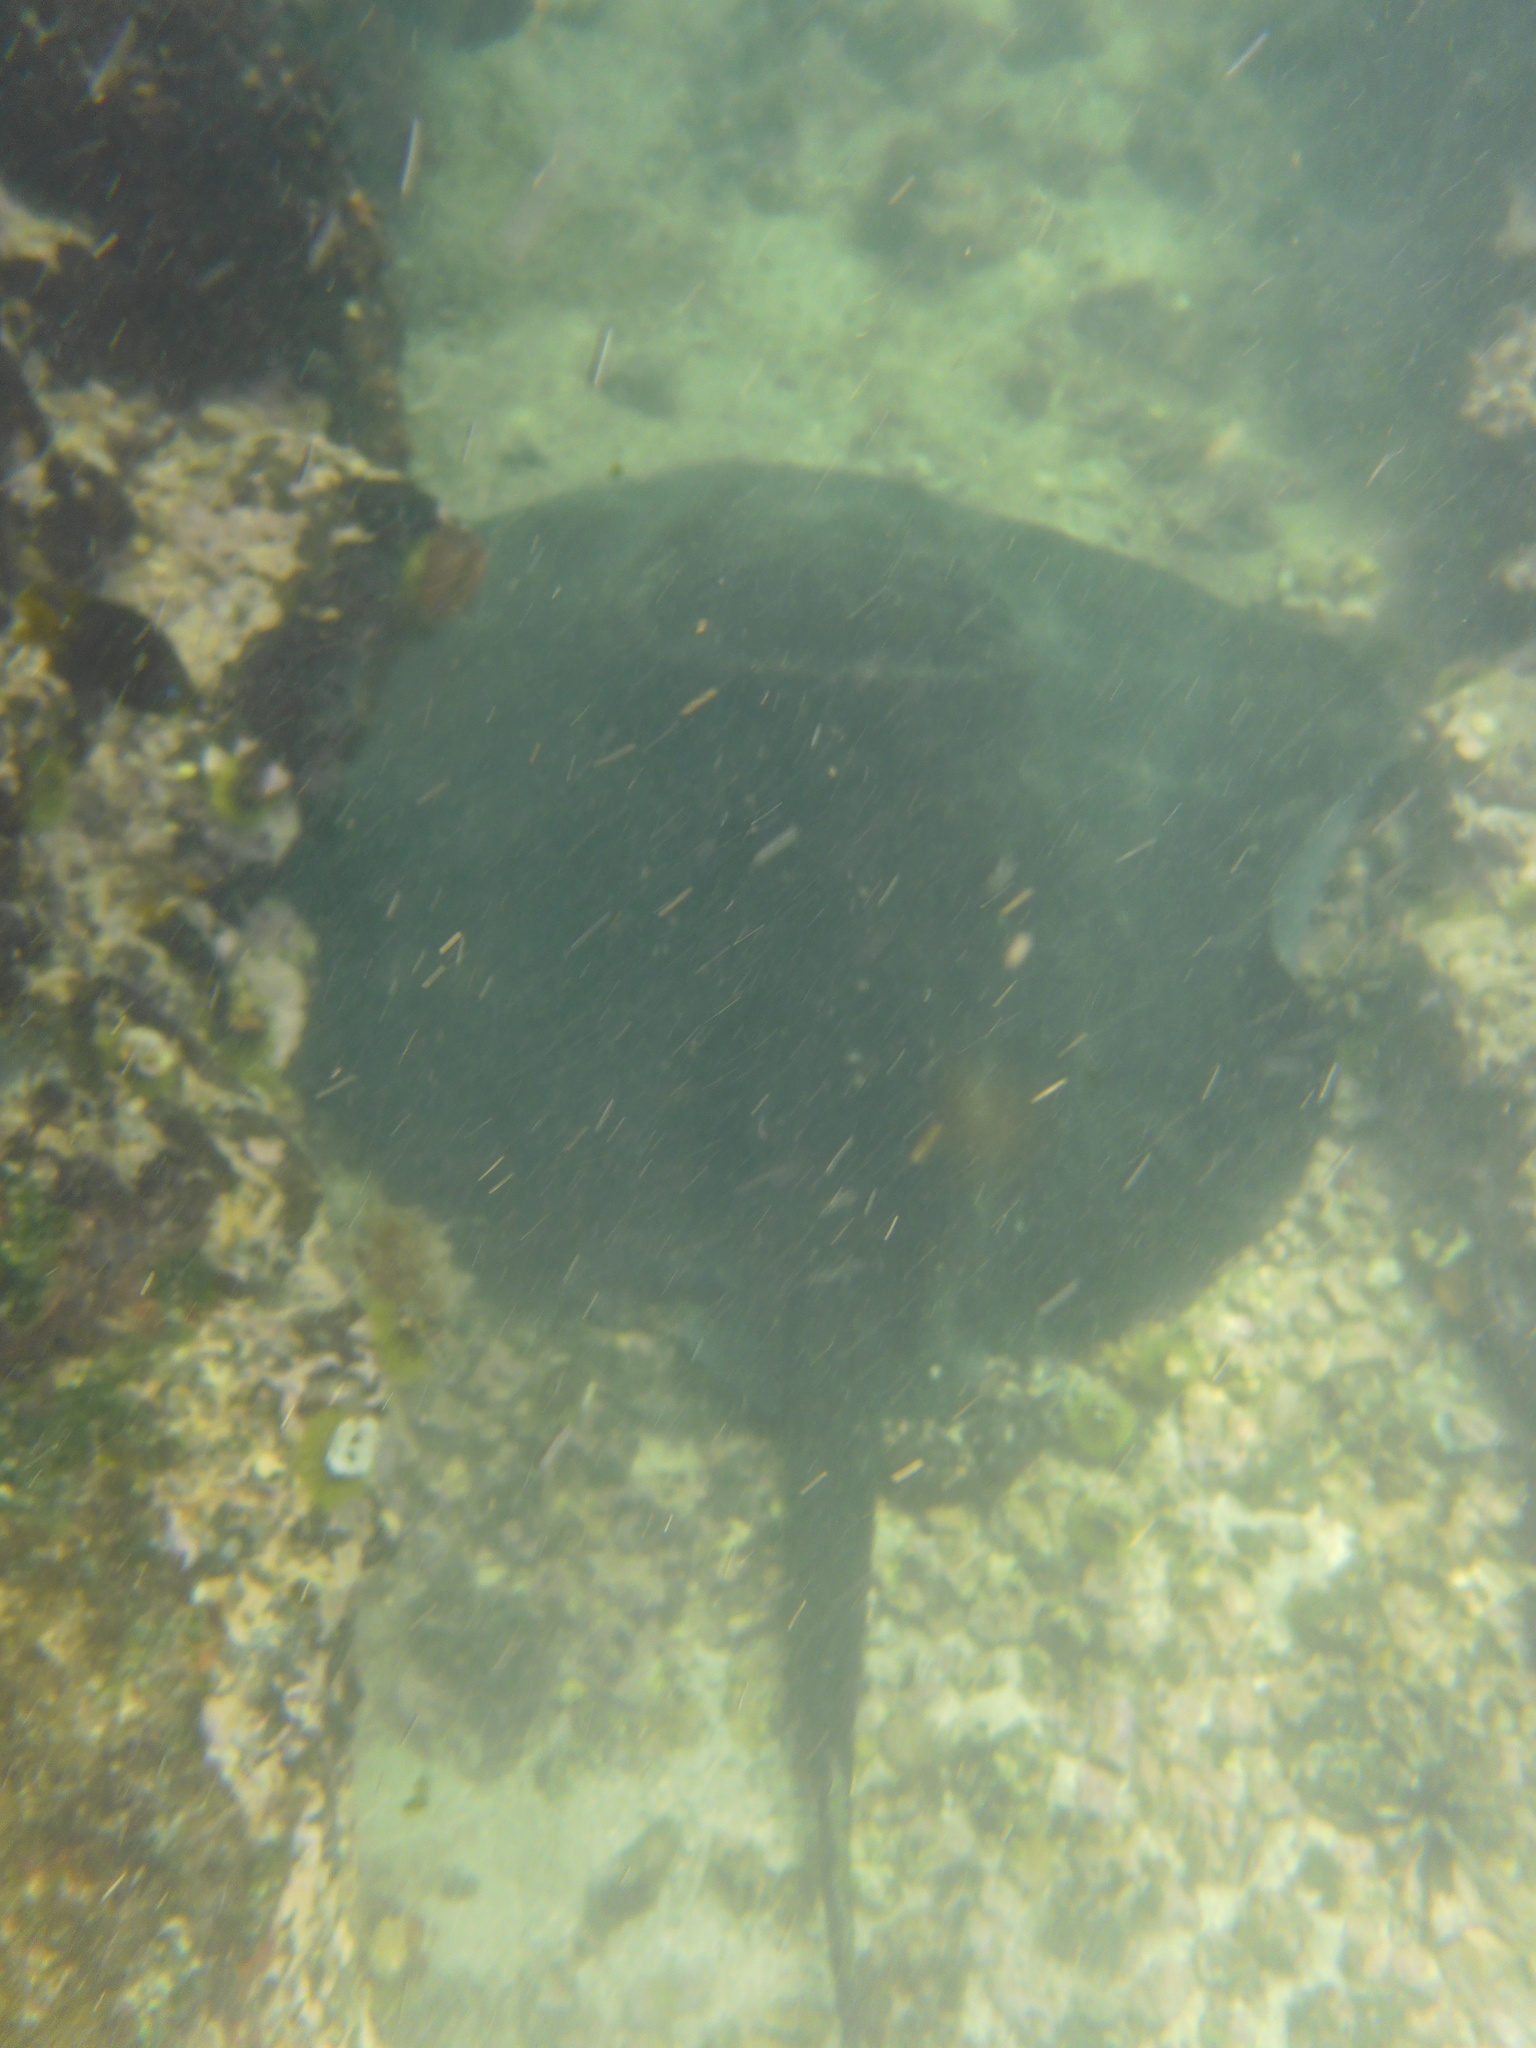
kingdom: Animalia
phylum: Chordata
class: Elasmobranchii
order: Myliobatiformes
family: Dasyatidae
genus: Taeniurops
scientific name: Taeniurops meyeni
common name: Black-blotched stingray
